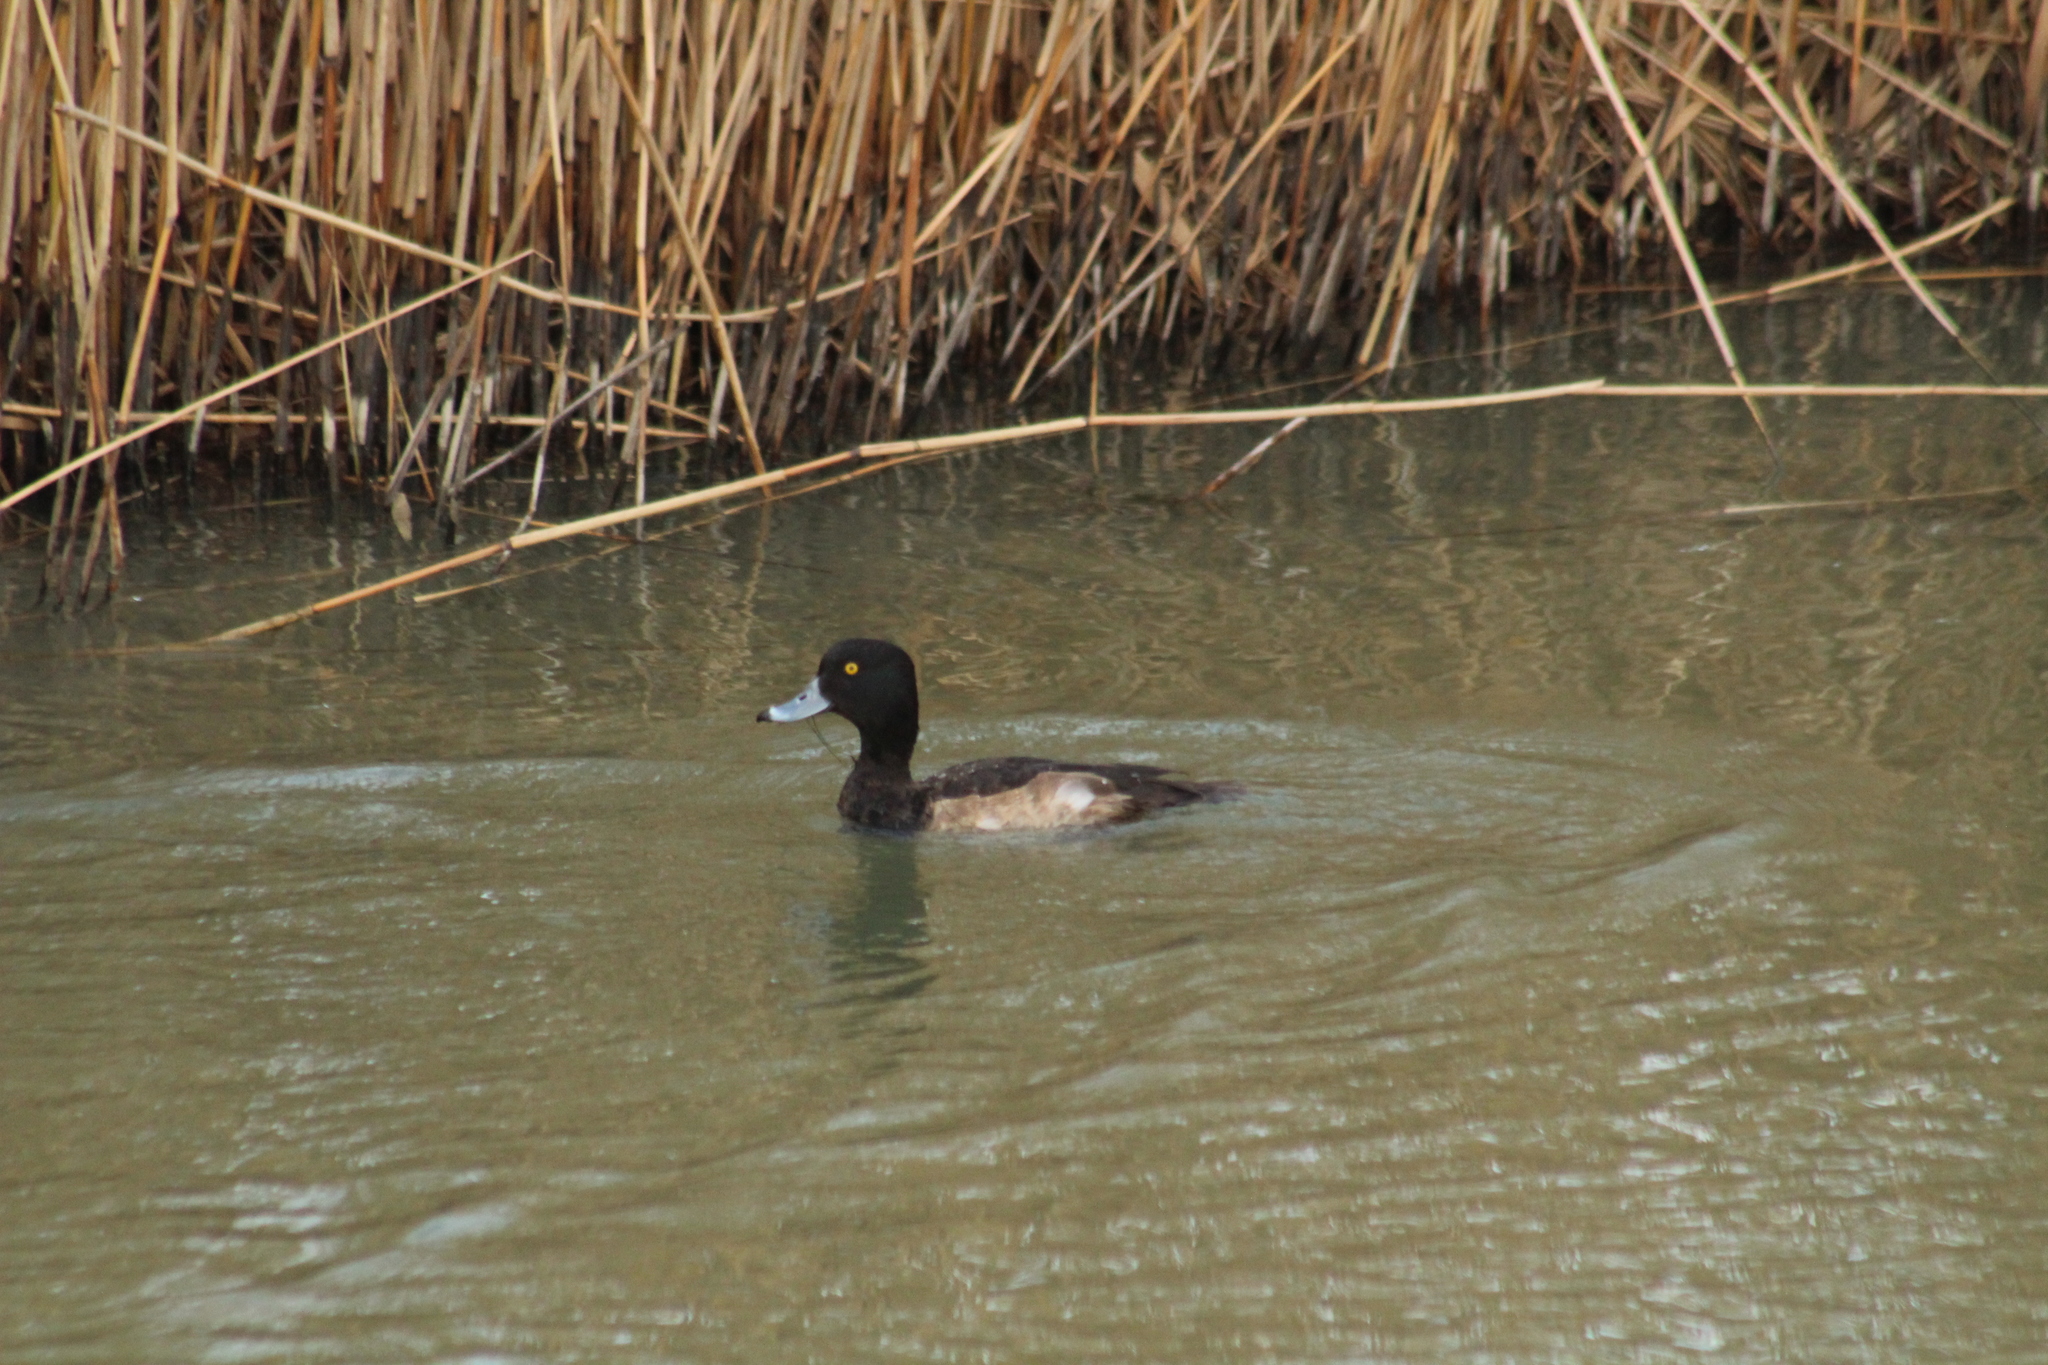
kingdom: Animalia
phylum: Chordata
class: Aves
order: Anseriformes
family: Anatidae
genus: Aythya
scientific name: Aythya fuligula
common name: Tufted duck
